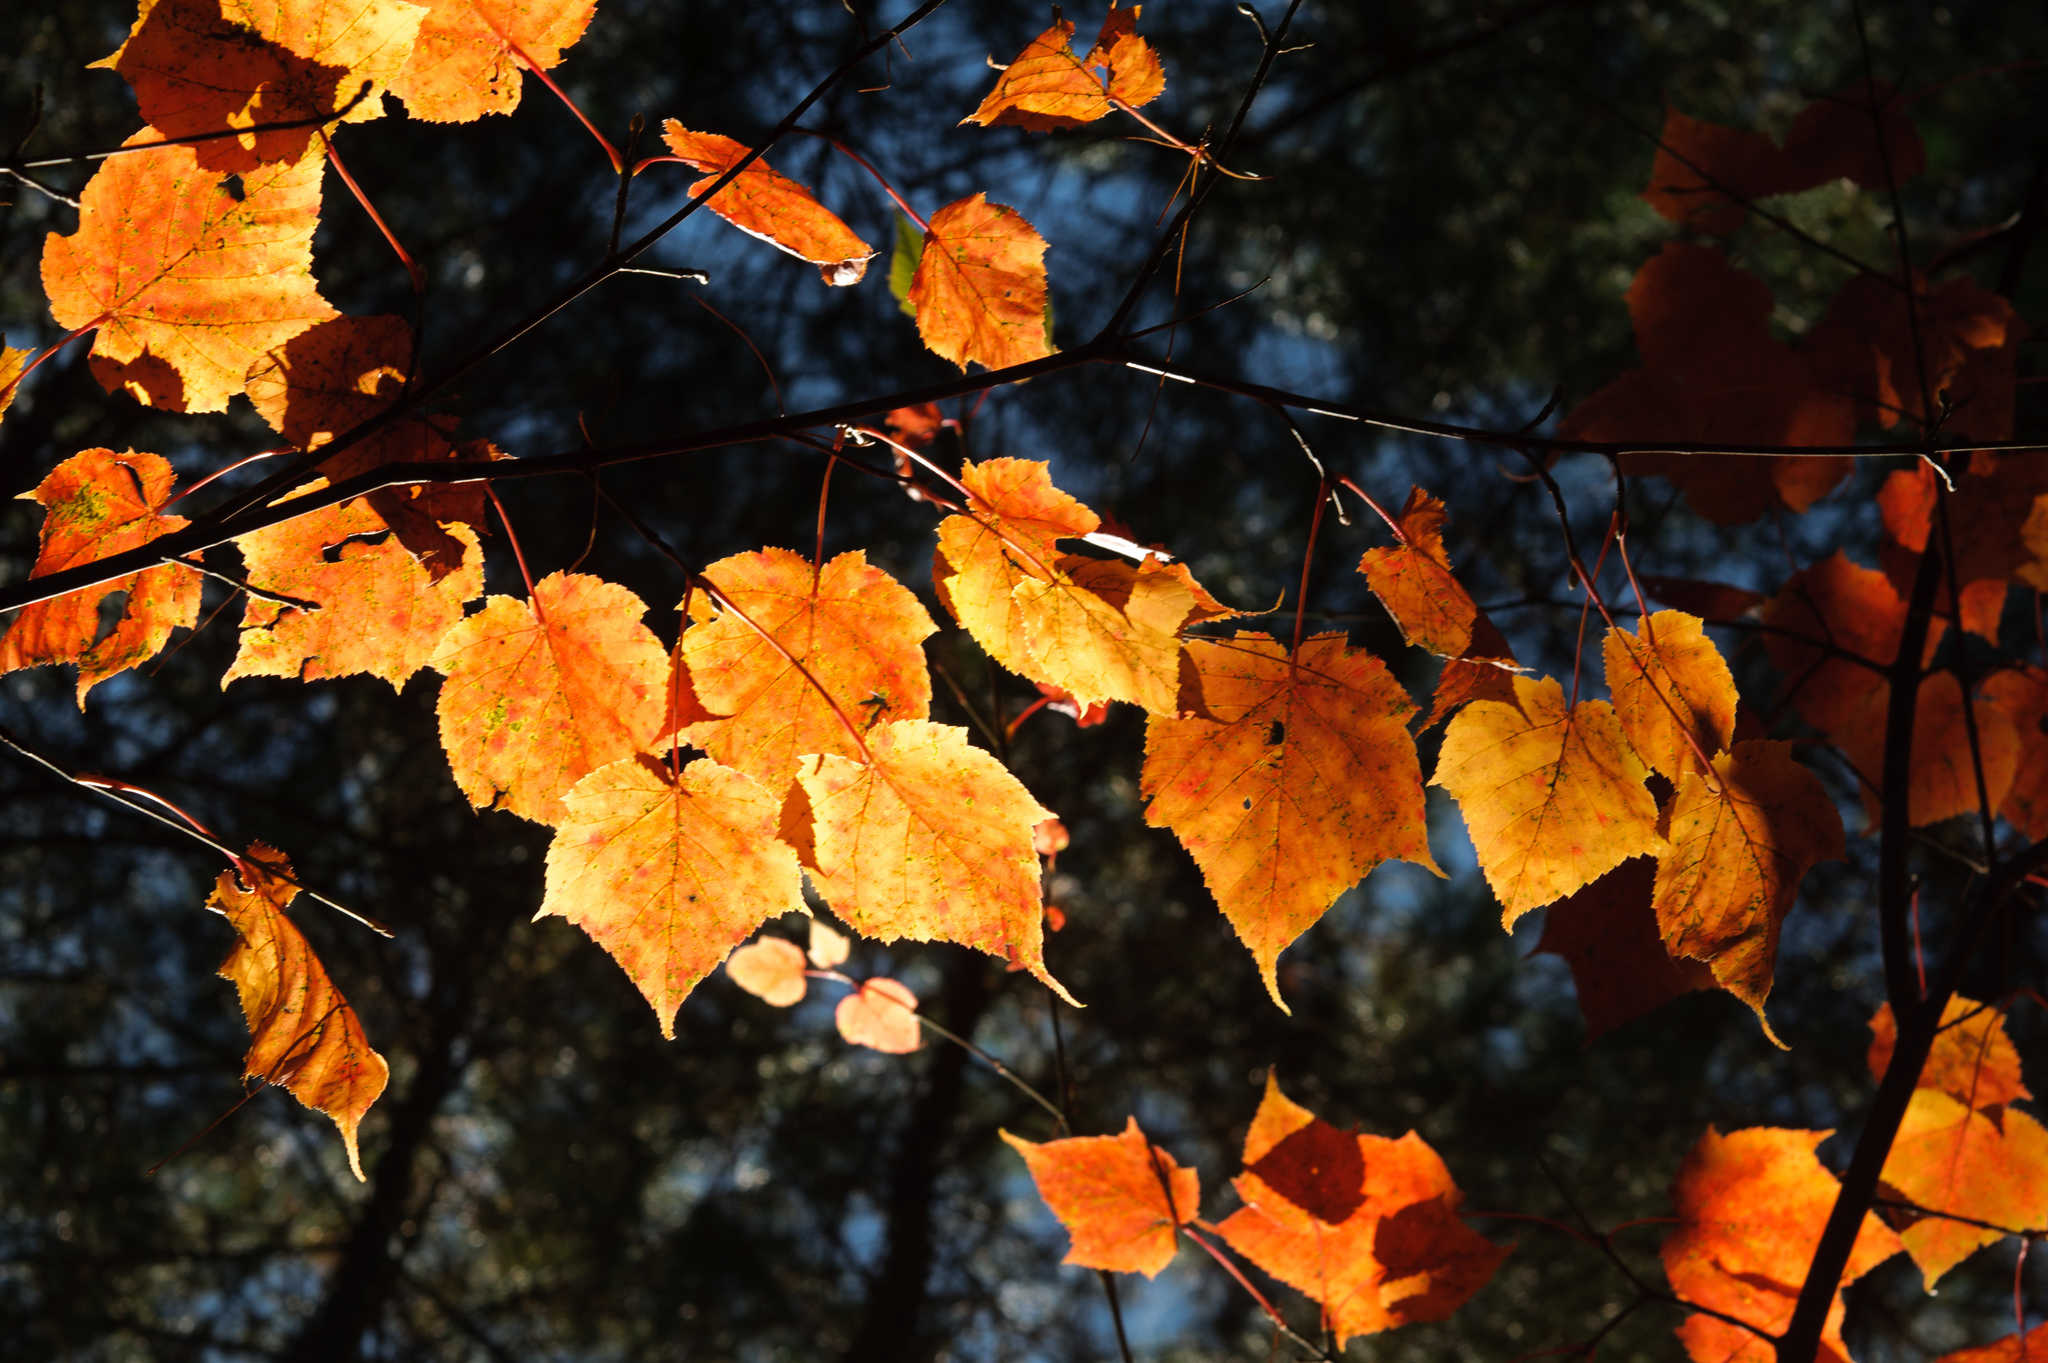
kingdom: Plantae
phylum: Tracheophyta
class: Magnoliopsida
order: Sapindales
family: Sapindaceae
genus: Acer
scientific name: Acer caudatifolium
